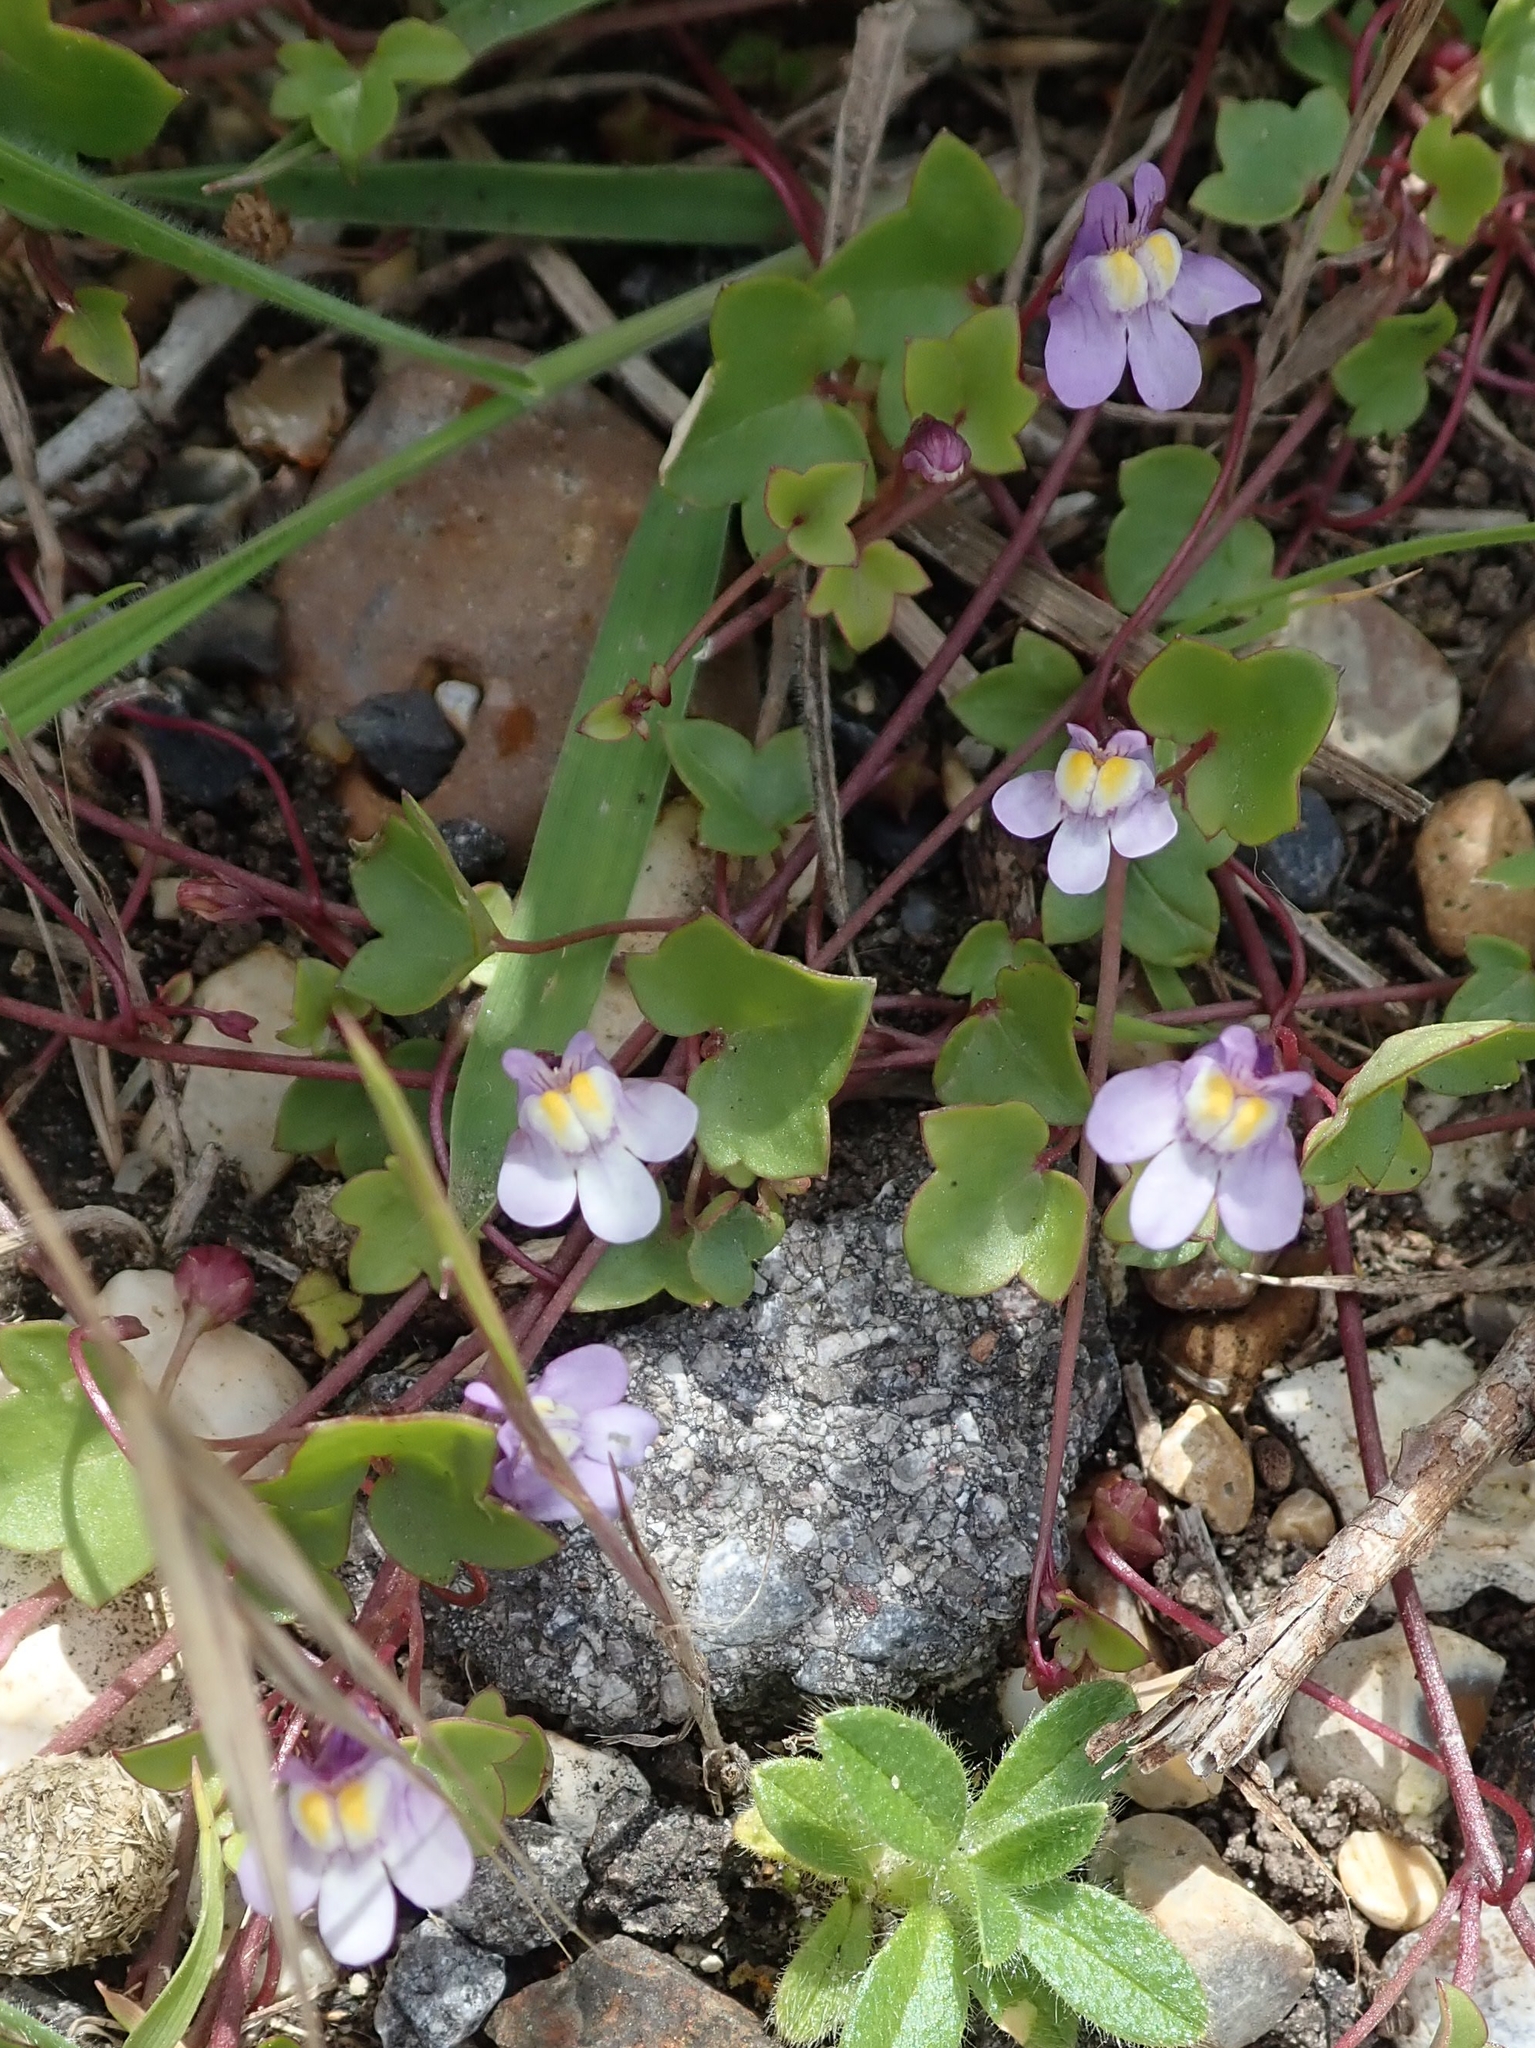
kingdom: Plantae
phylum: Tracheophyta
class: Magnoliopsida
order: Lamiales
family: Plantaginaceae
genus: Cymbalaria
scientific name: Cymbalaria muralis
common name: Ivy-leaved toadflax
